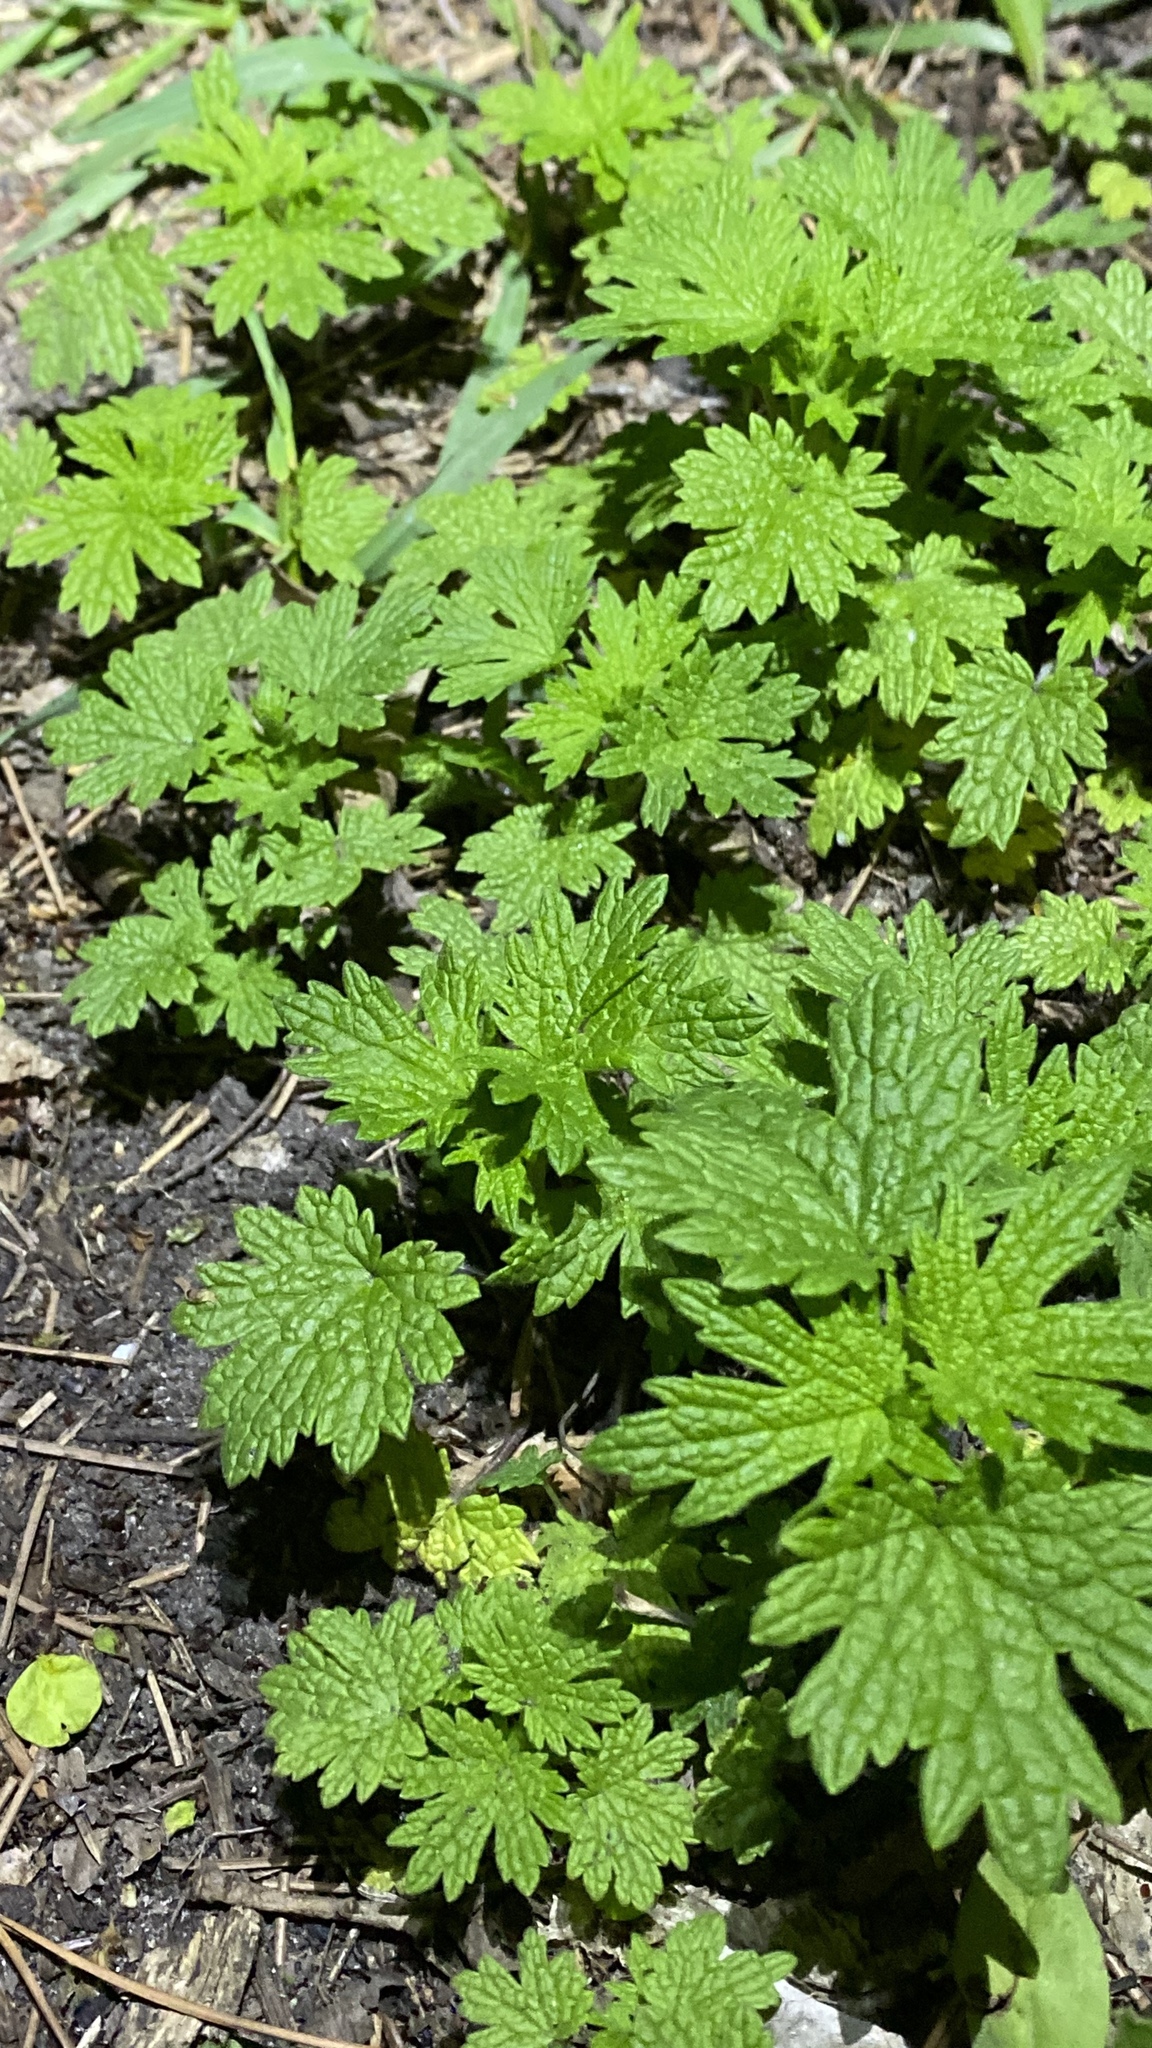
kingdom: Plantae
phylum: Tracheophyta
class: Magnoliopsida
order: Lamiales
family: Lamiaceae
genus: Leonurus
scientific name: Leonurus cardiaca
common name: Motherwort
